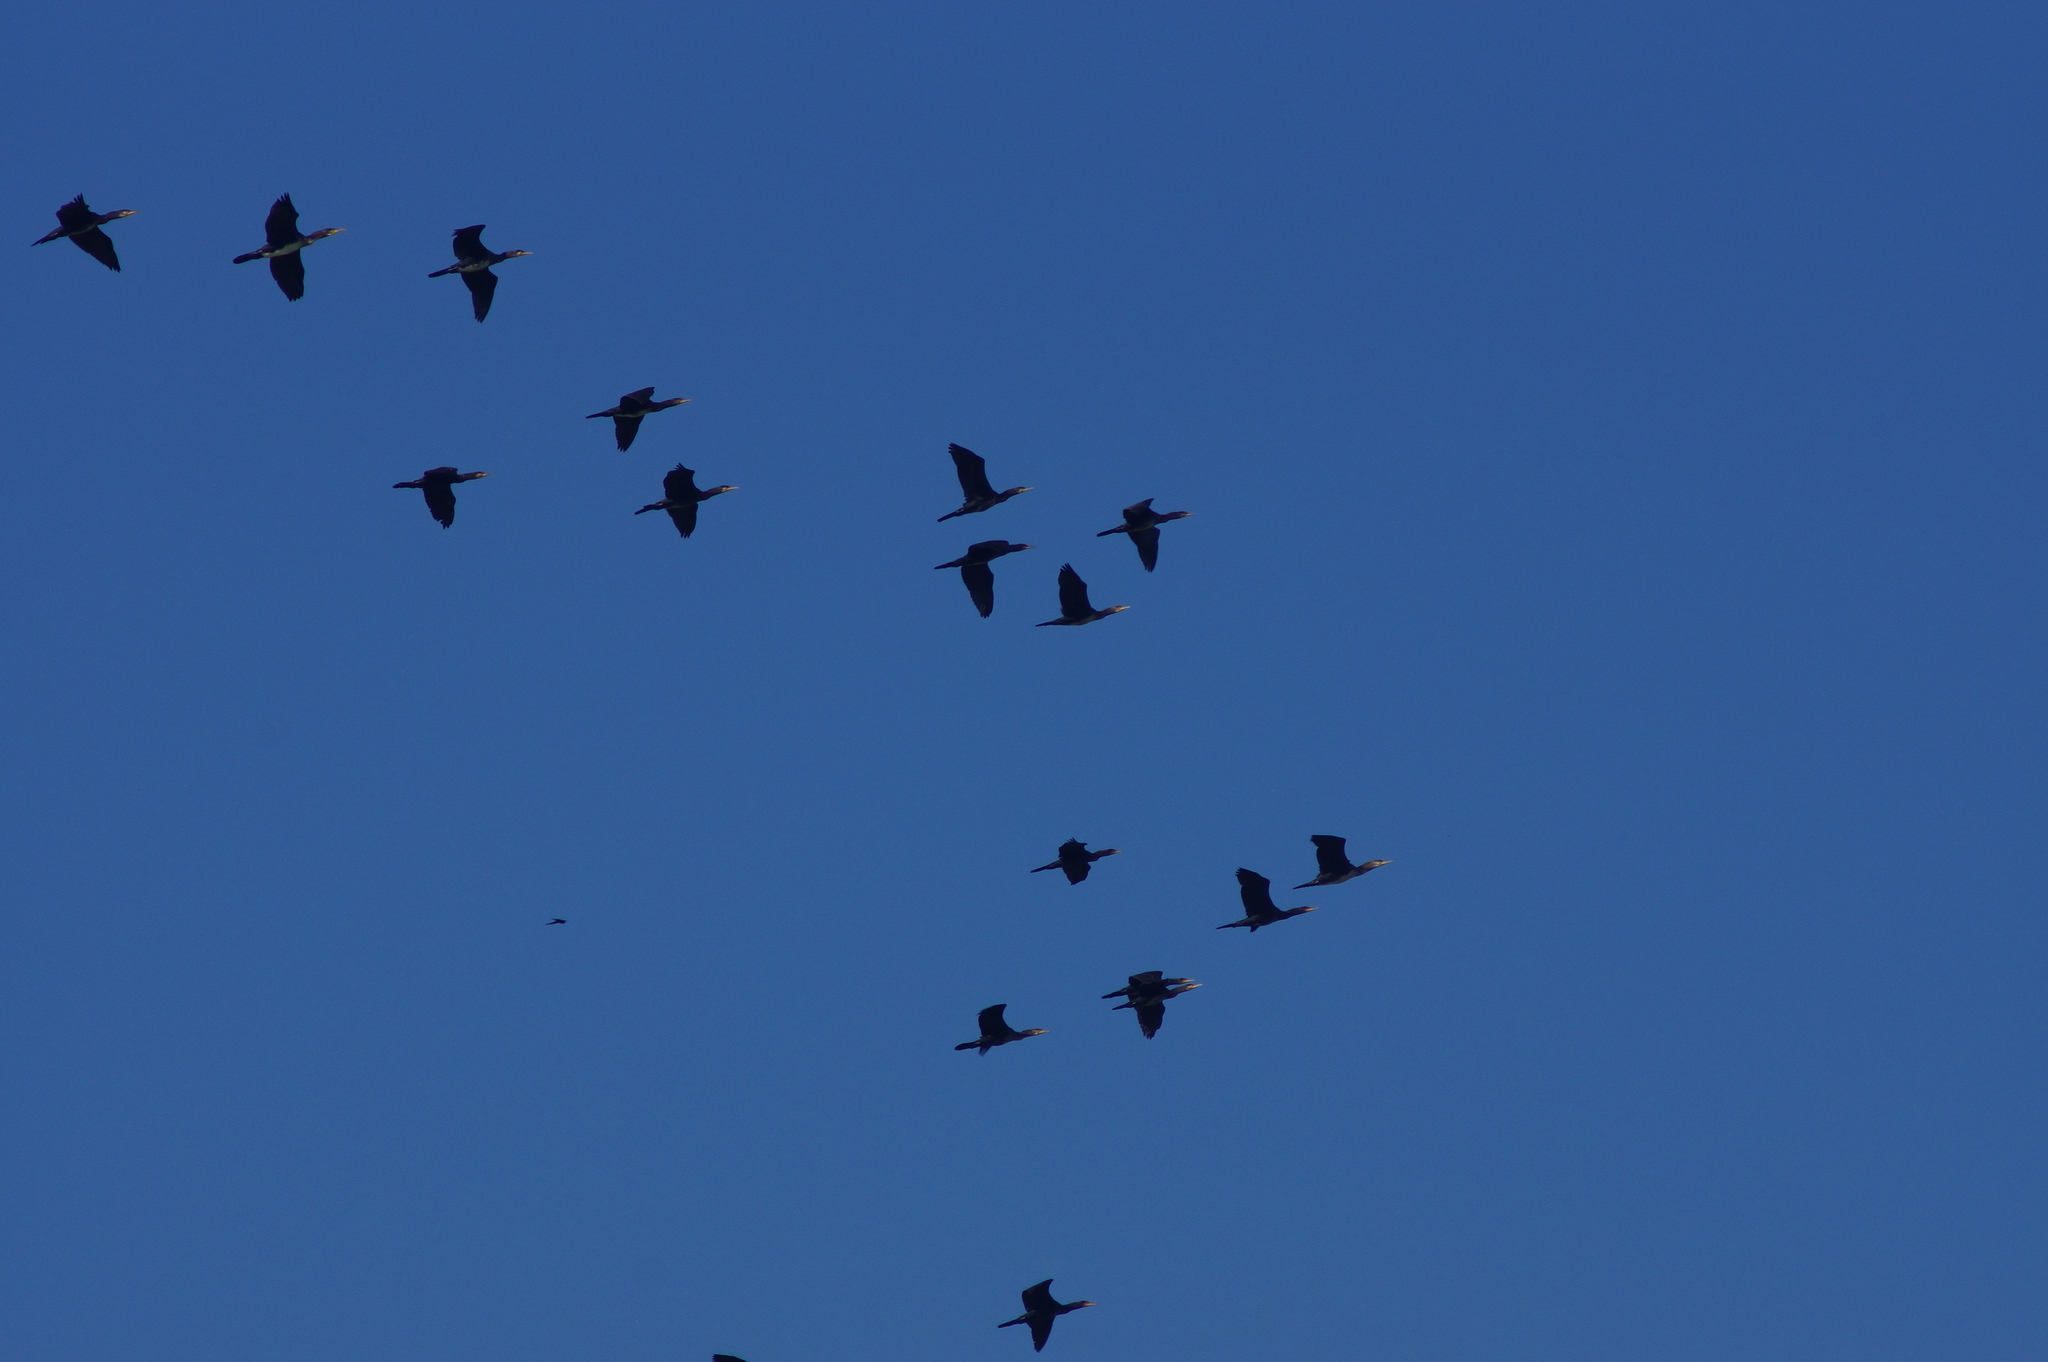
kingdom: Animalia
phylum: Chordata
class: Aves
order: Suliformes
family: Phalacrocoracidae
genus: Phalacrocorax
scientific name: Phalacrocorax carbo
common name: Great cormorant
